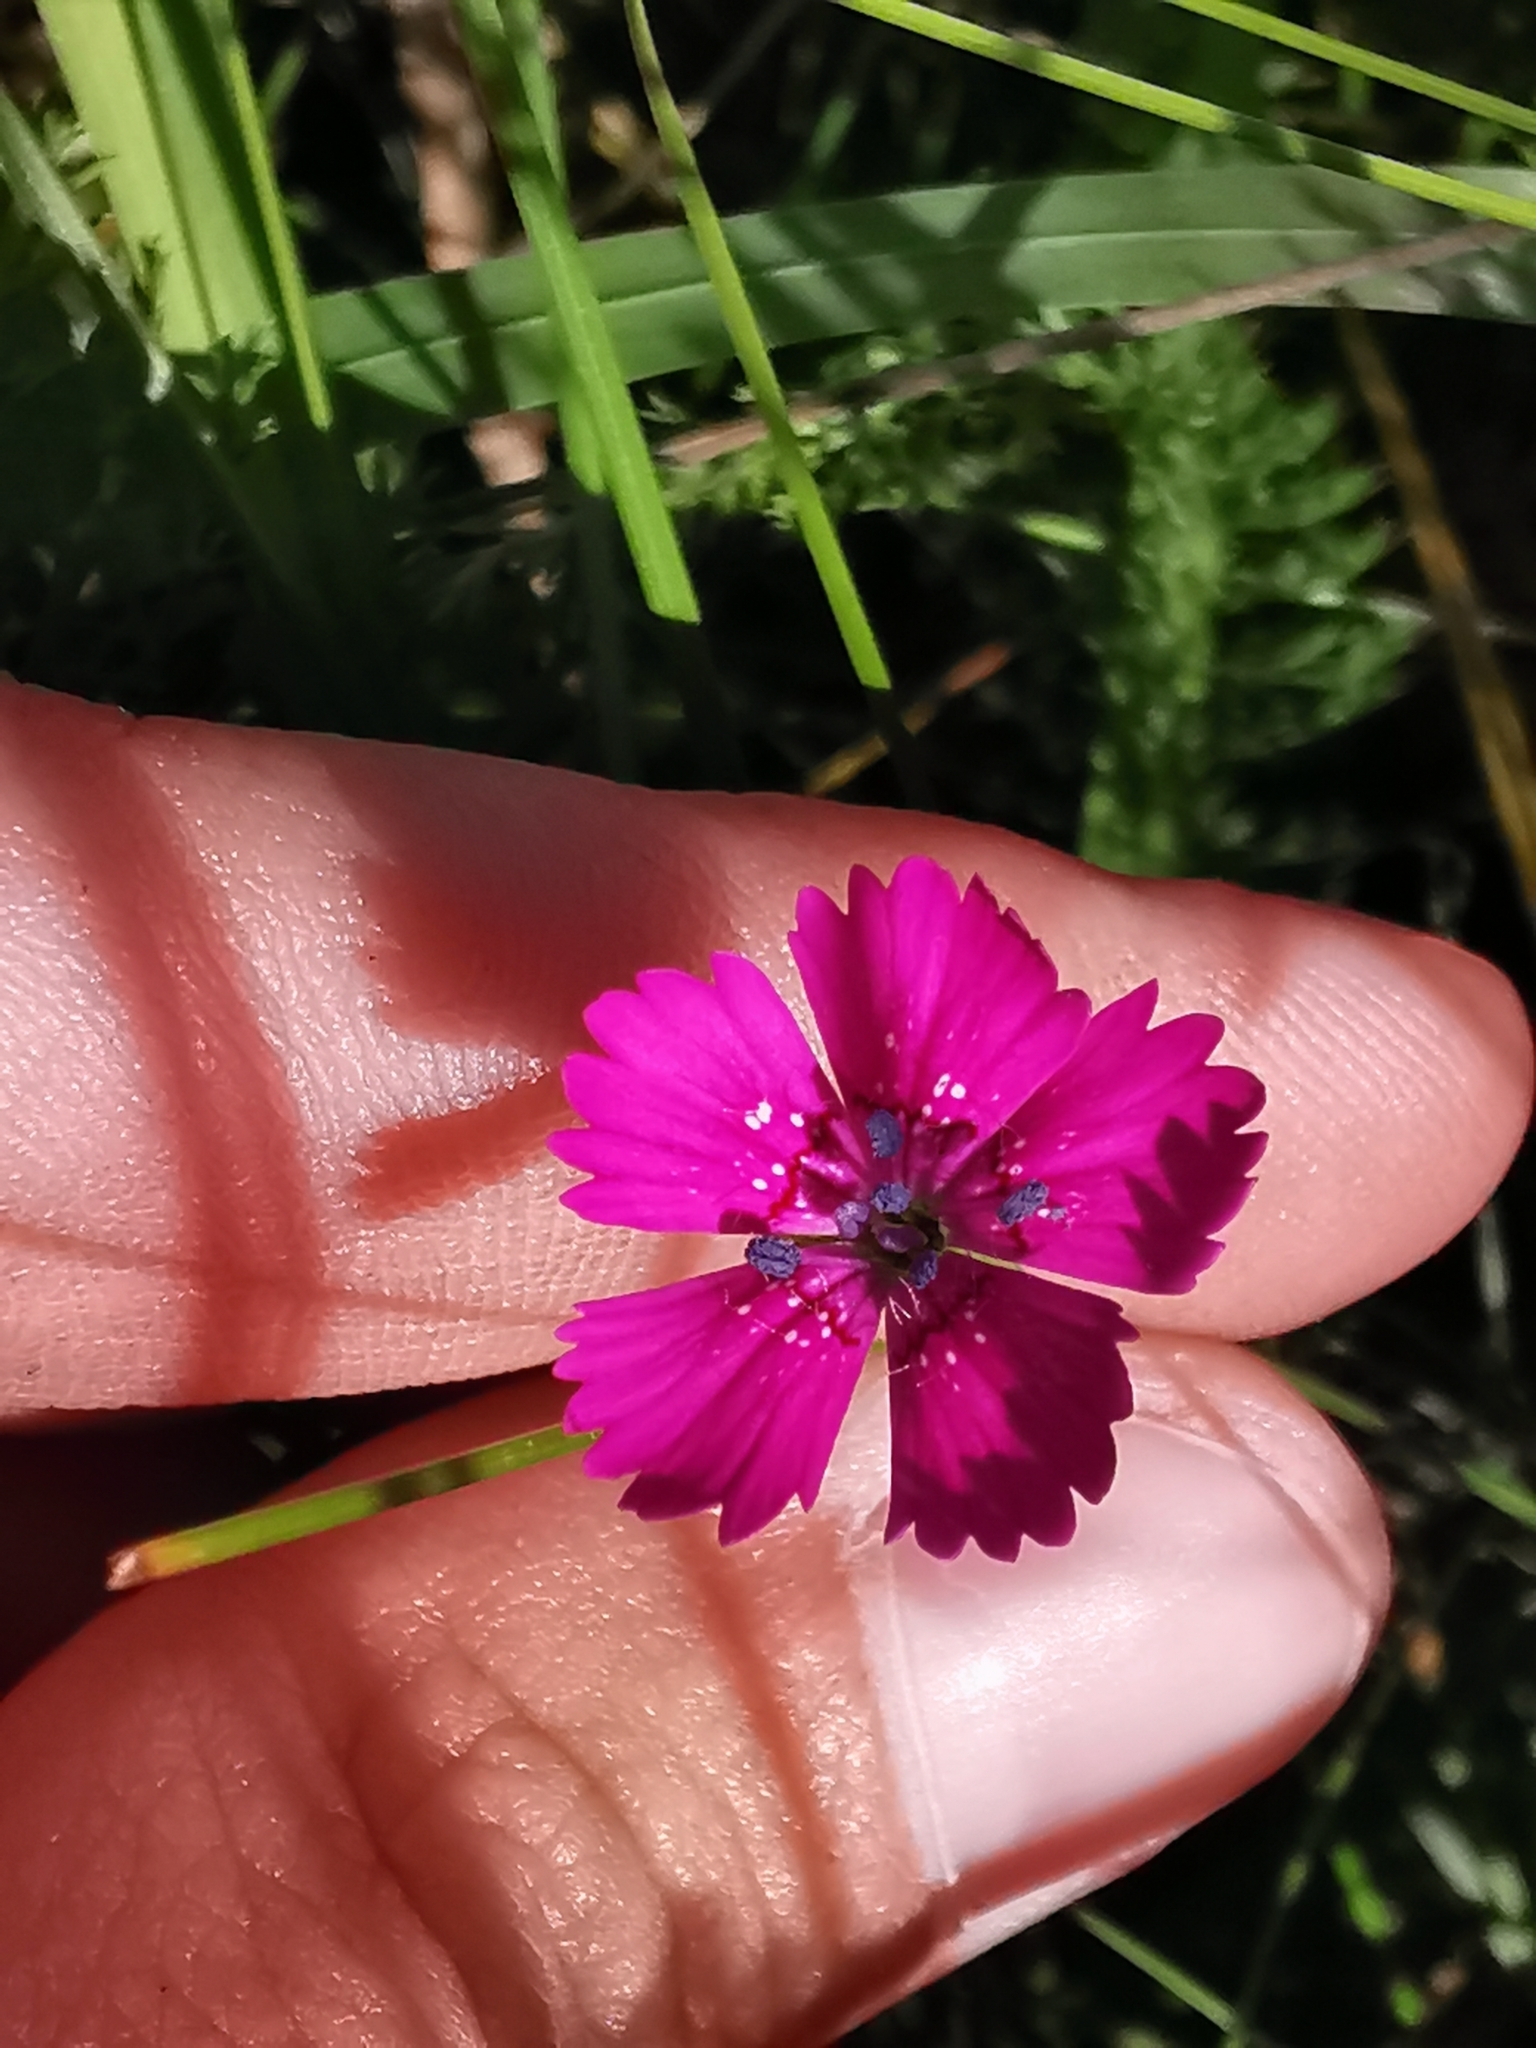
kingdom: Plantae
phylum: Tracheophyta
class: Magnoliopsida
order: Caryophyllales
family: Caryophyllaceae
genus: Dianthus
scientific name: Dianthus deltoides
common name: Maiden pink
